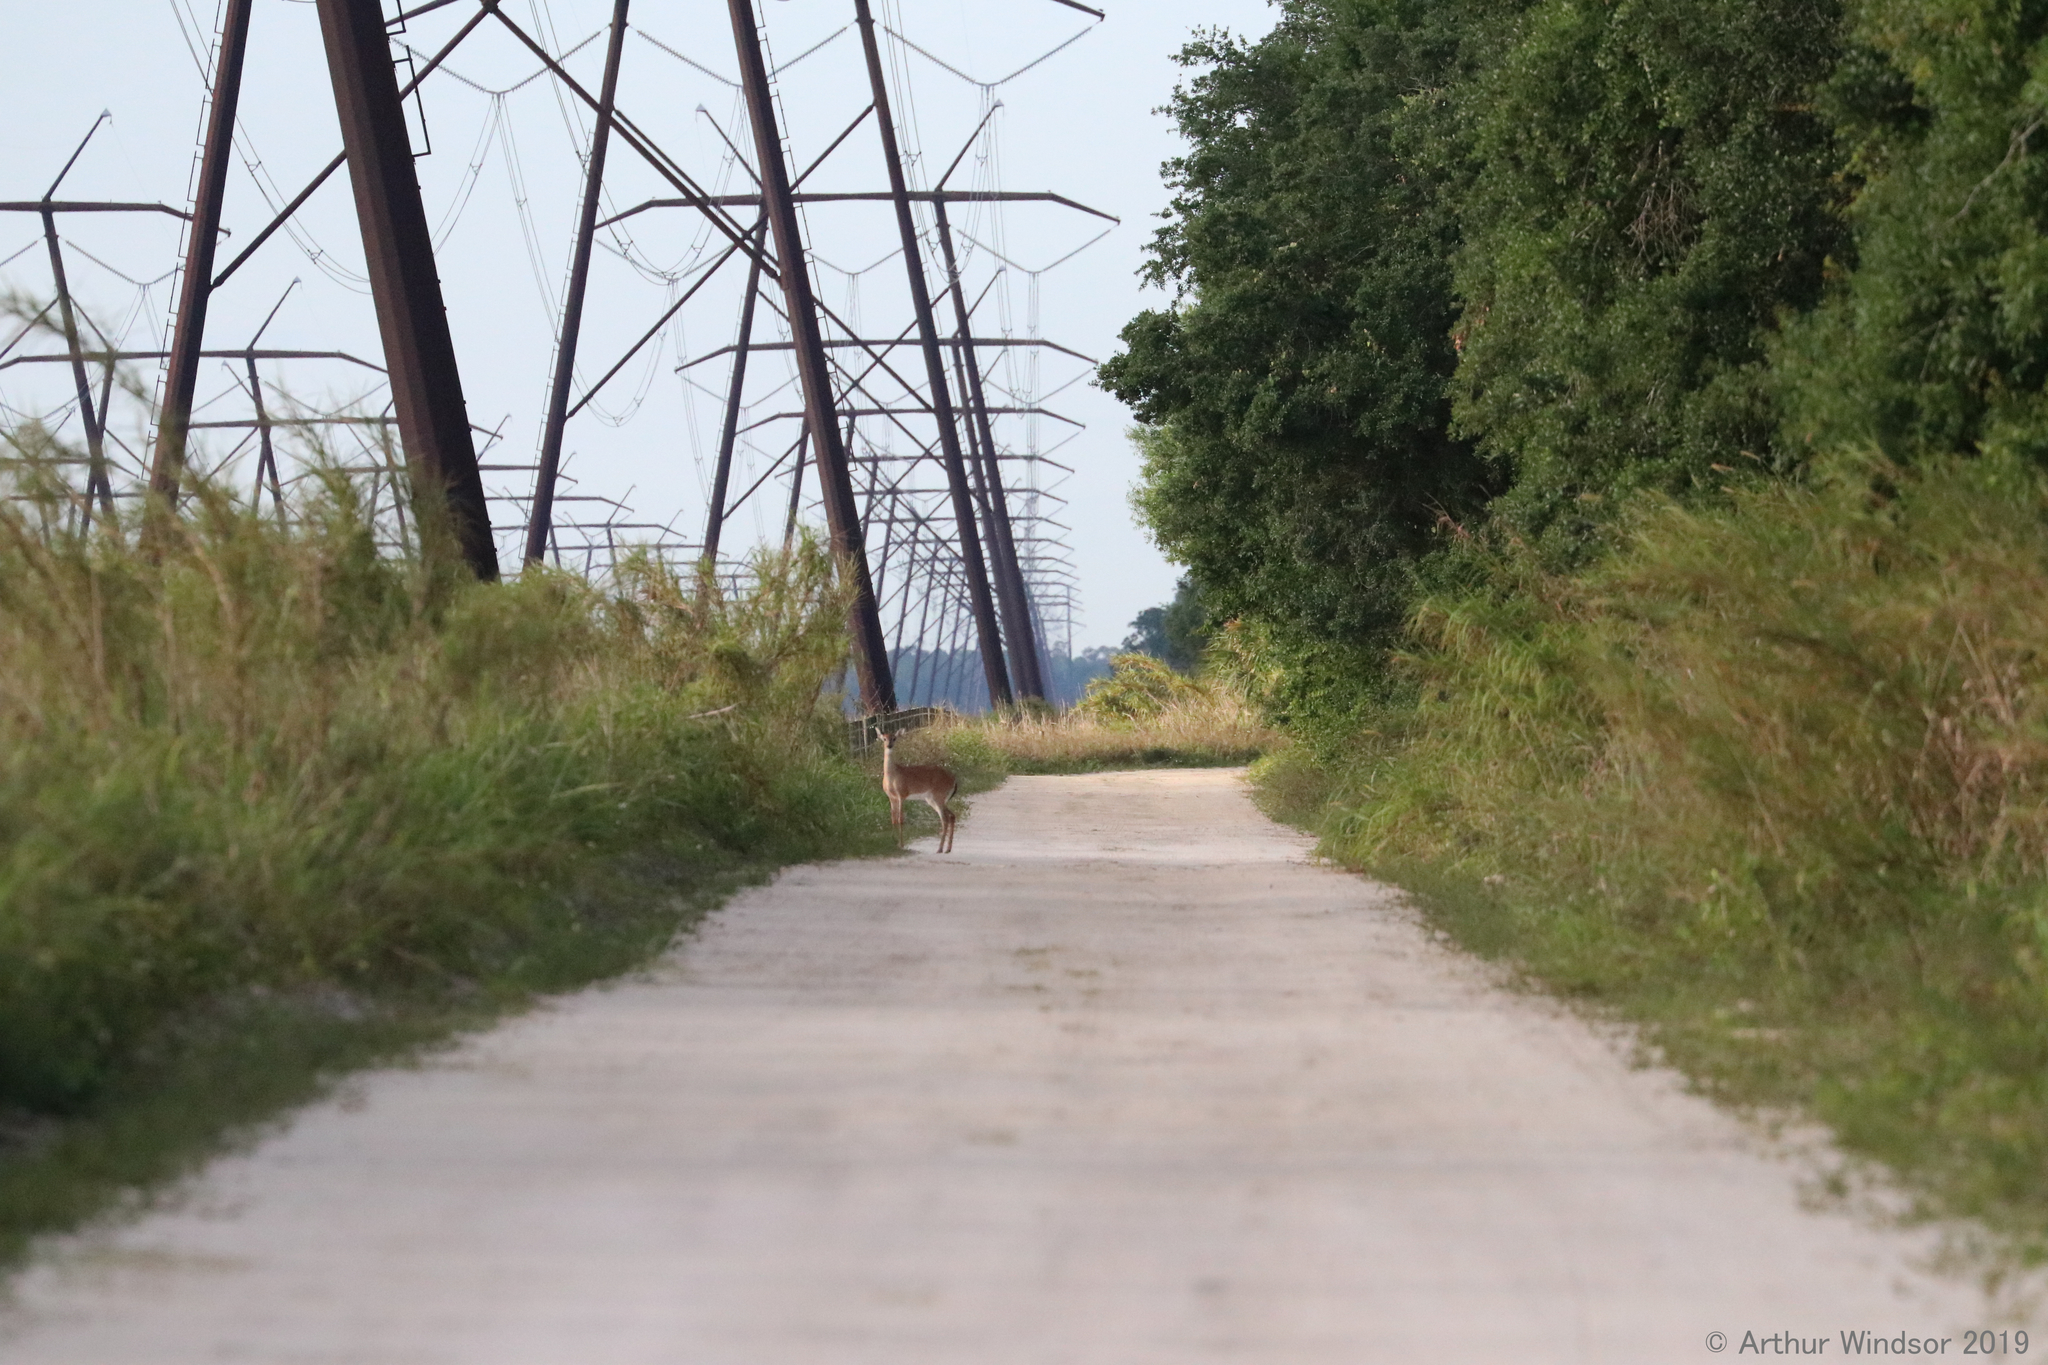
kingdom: Animalia
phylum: Chordata
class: Mammalia
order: Artiodactyla
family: Cervidae
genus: Odocoileus
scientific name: Odocoileus virginianus
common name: White-tailed deer
